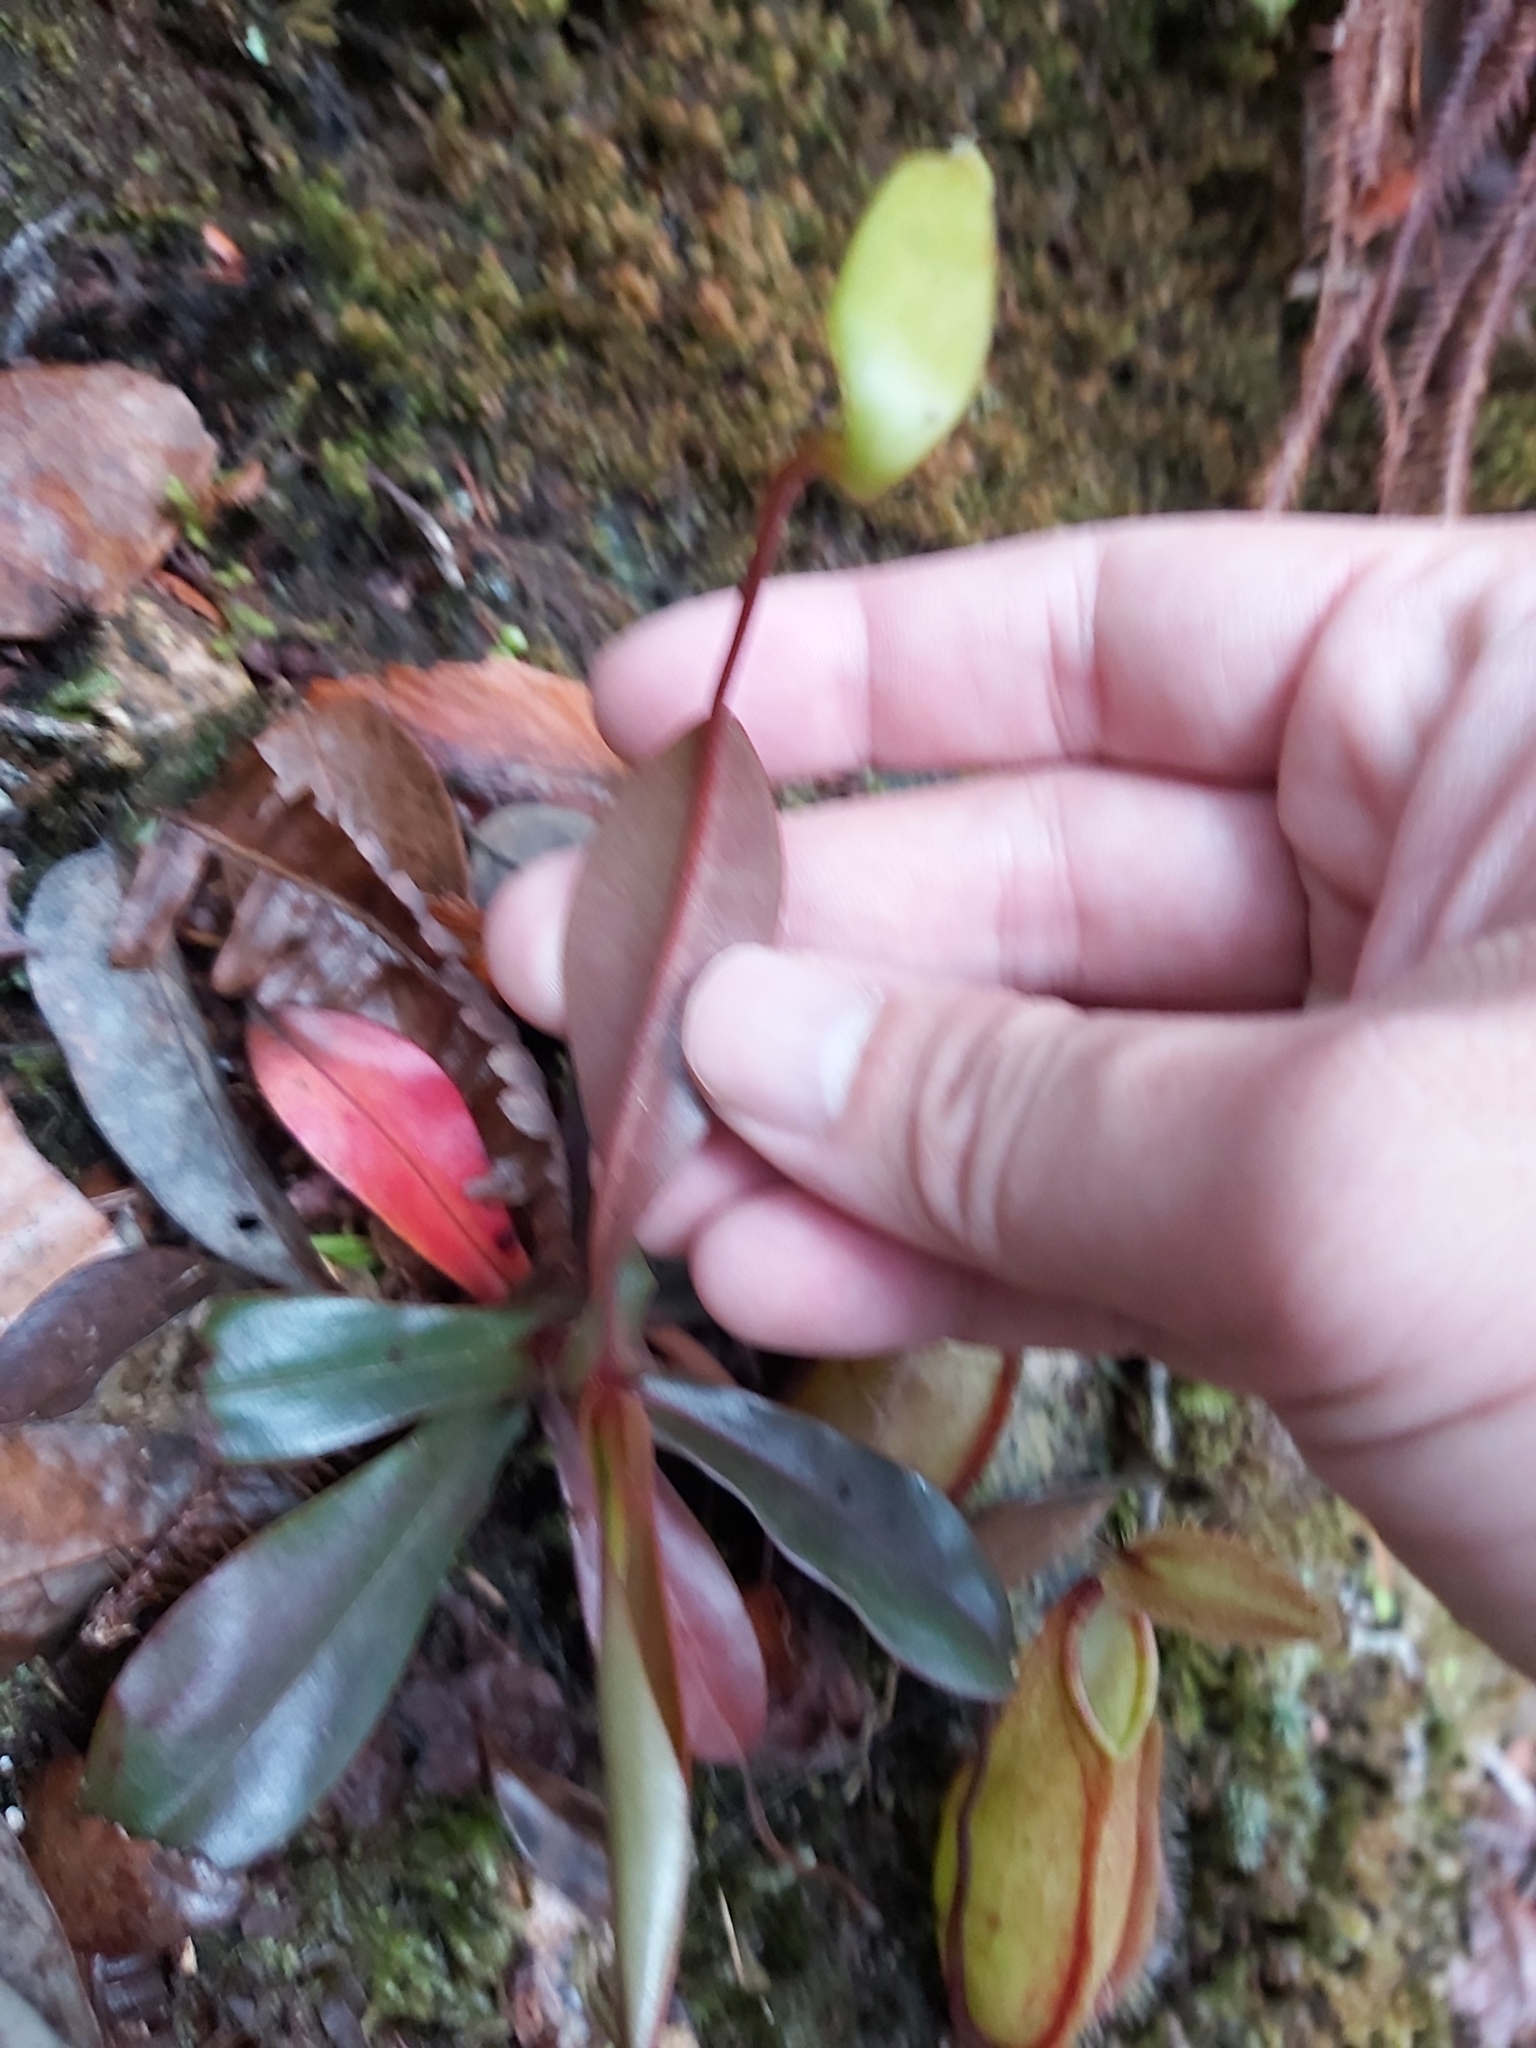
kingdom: Plantae
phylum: Tracheophyta
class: Magnoliopsida
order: Caryophyllales
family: Nepenthaceae
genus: Nepenthes
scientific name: Nepenthes tentaculata
